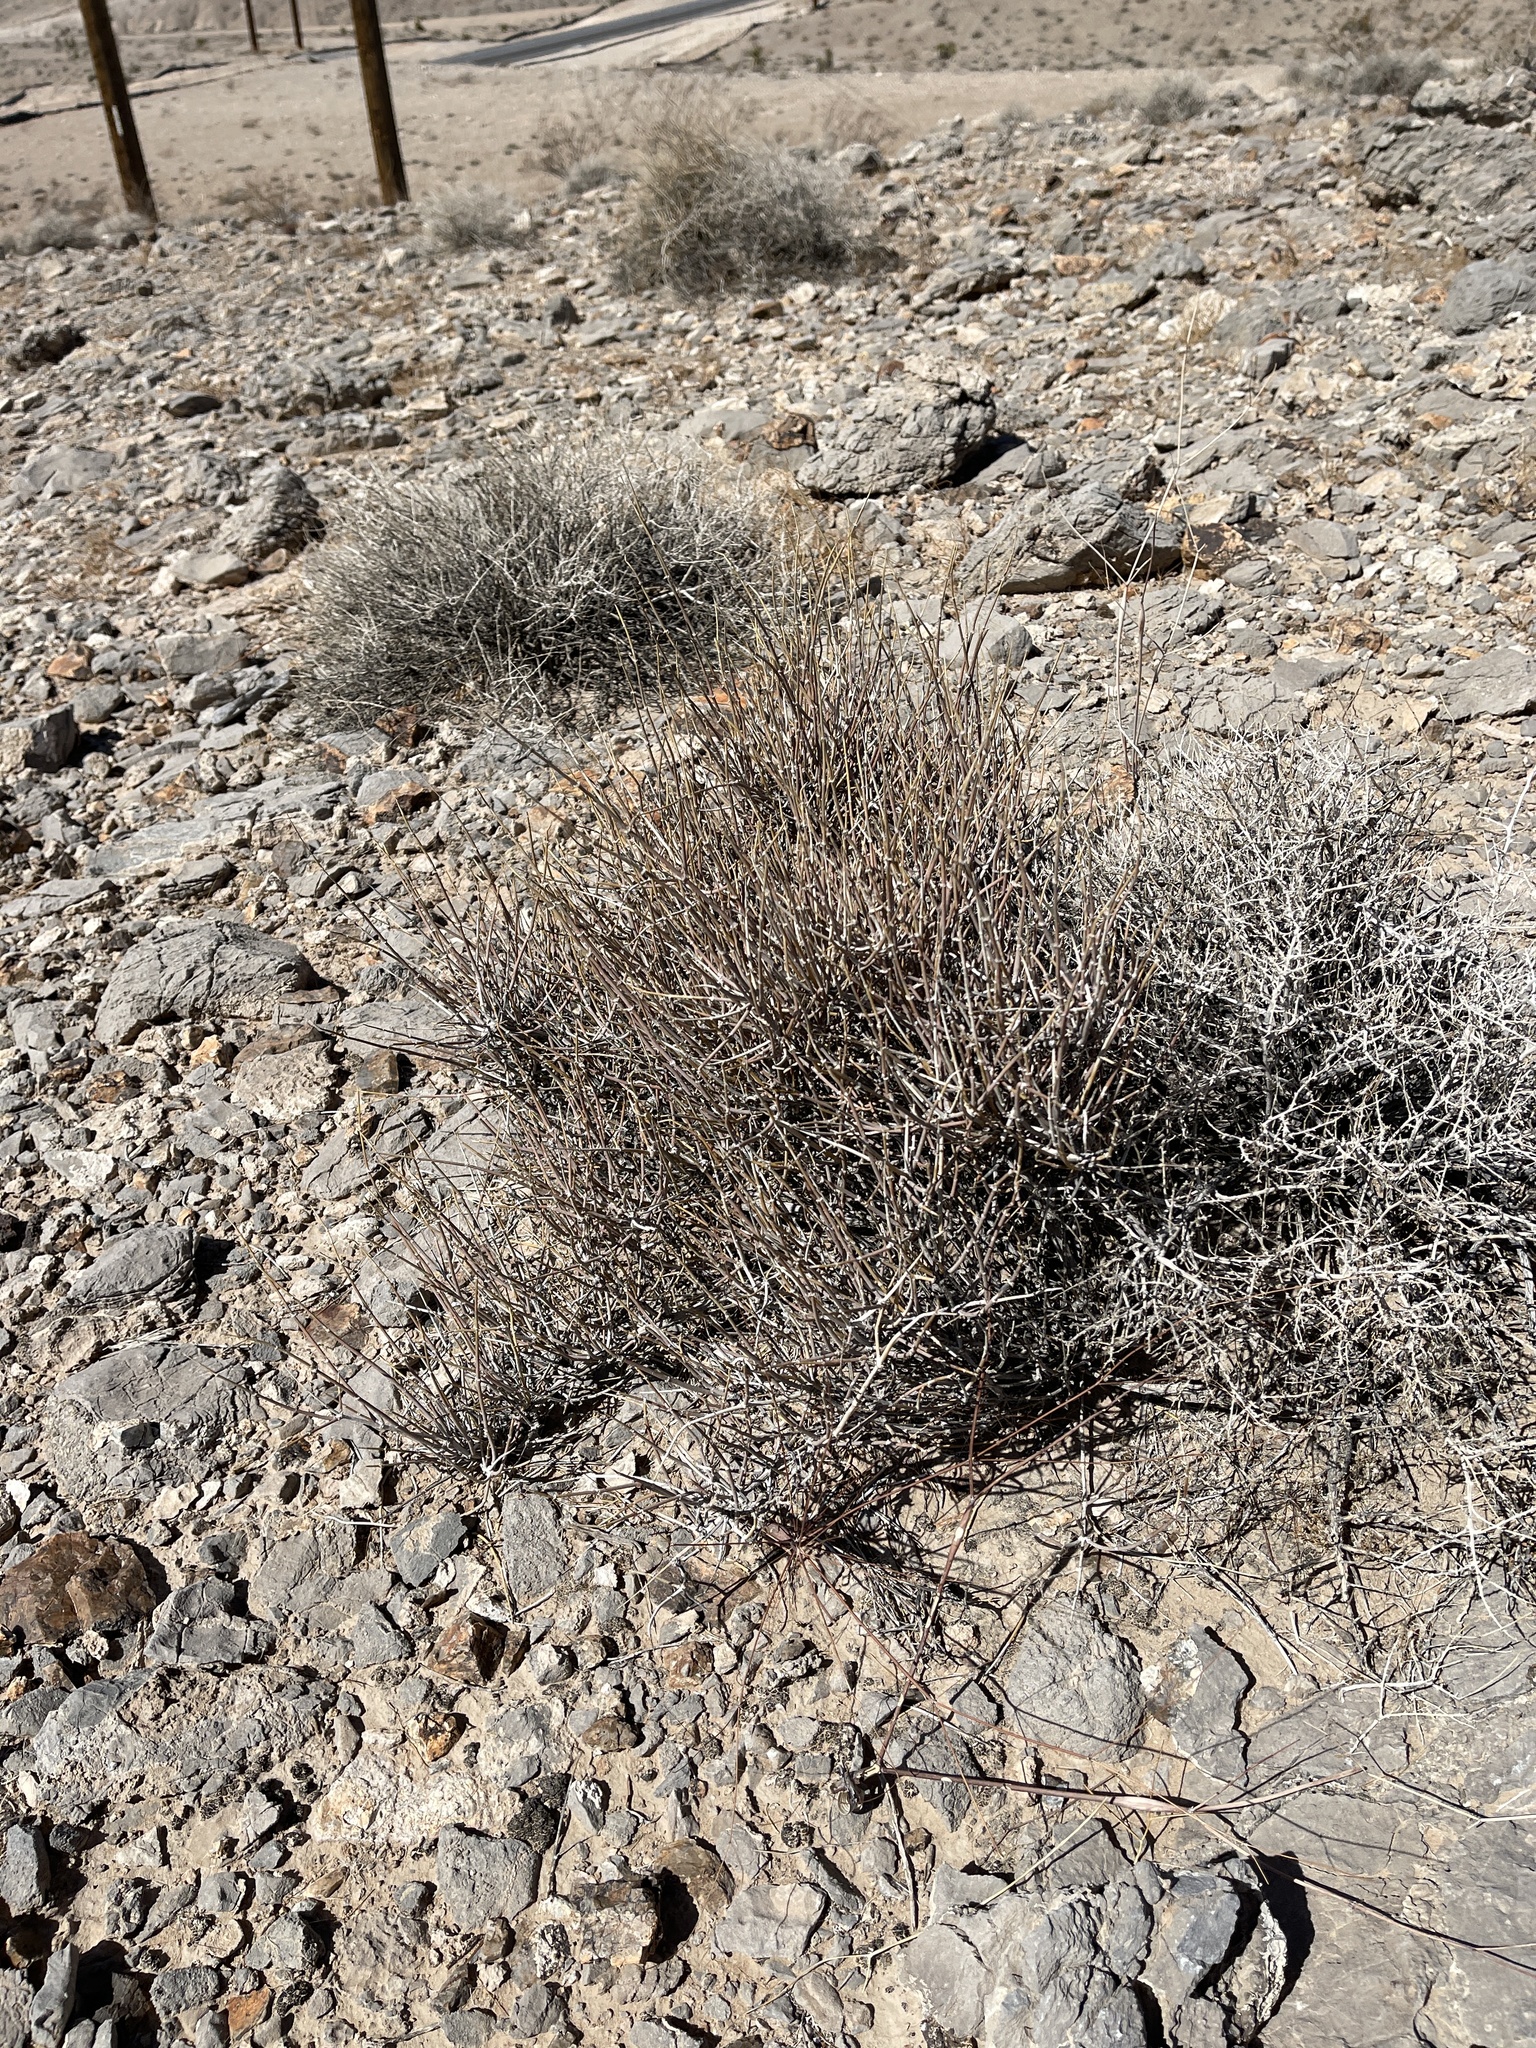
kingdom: Plantae
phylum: Tracheophyta
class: Gnetopsida
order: Ephedrales
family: Ephedraceae
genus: Ephedra
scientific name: Ephedra nevadensis
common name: Gray ephedra
